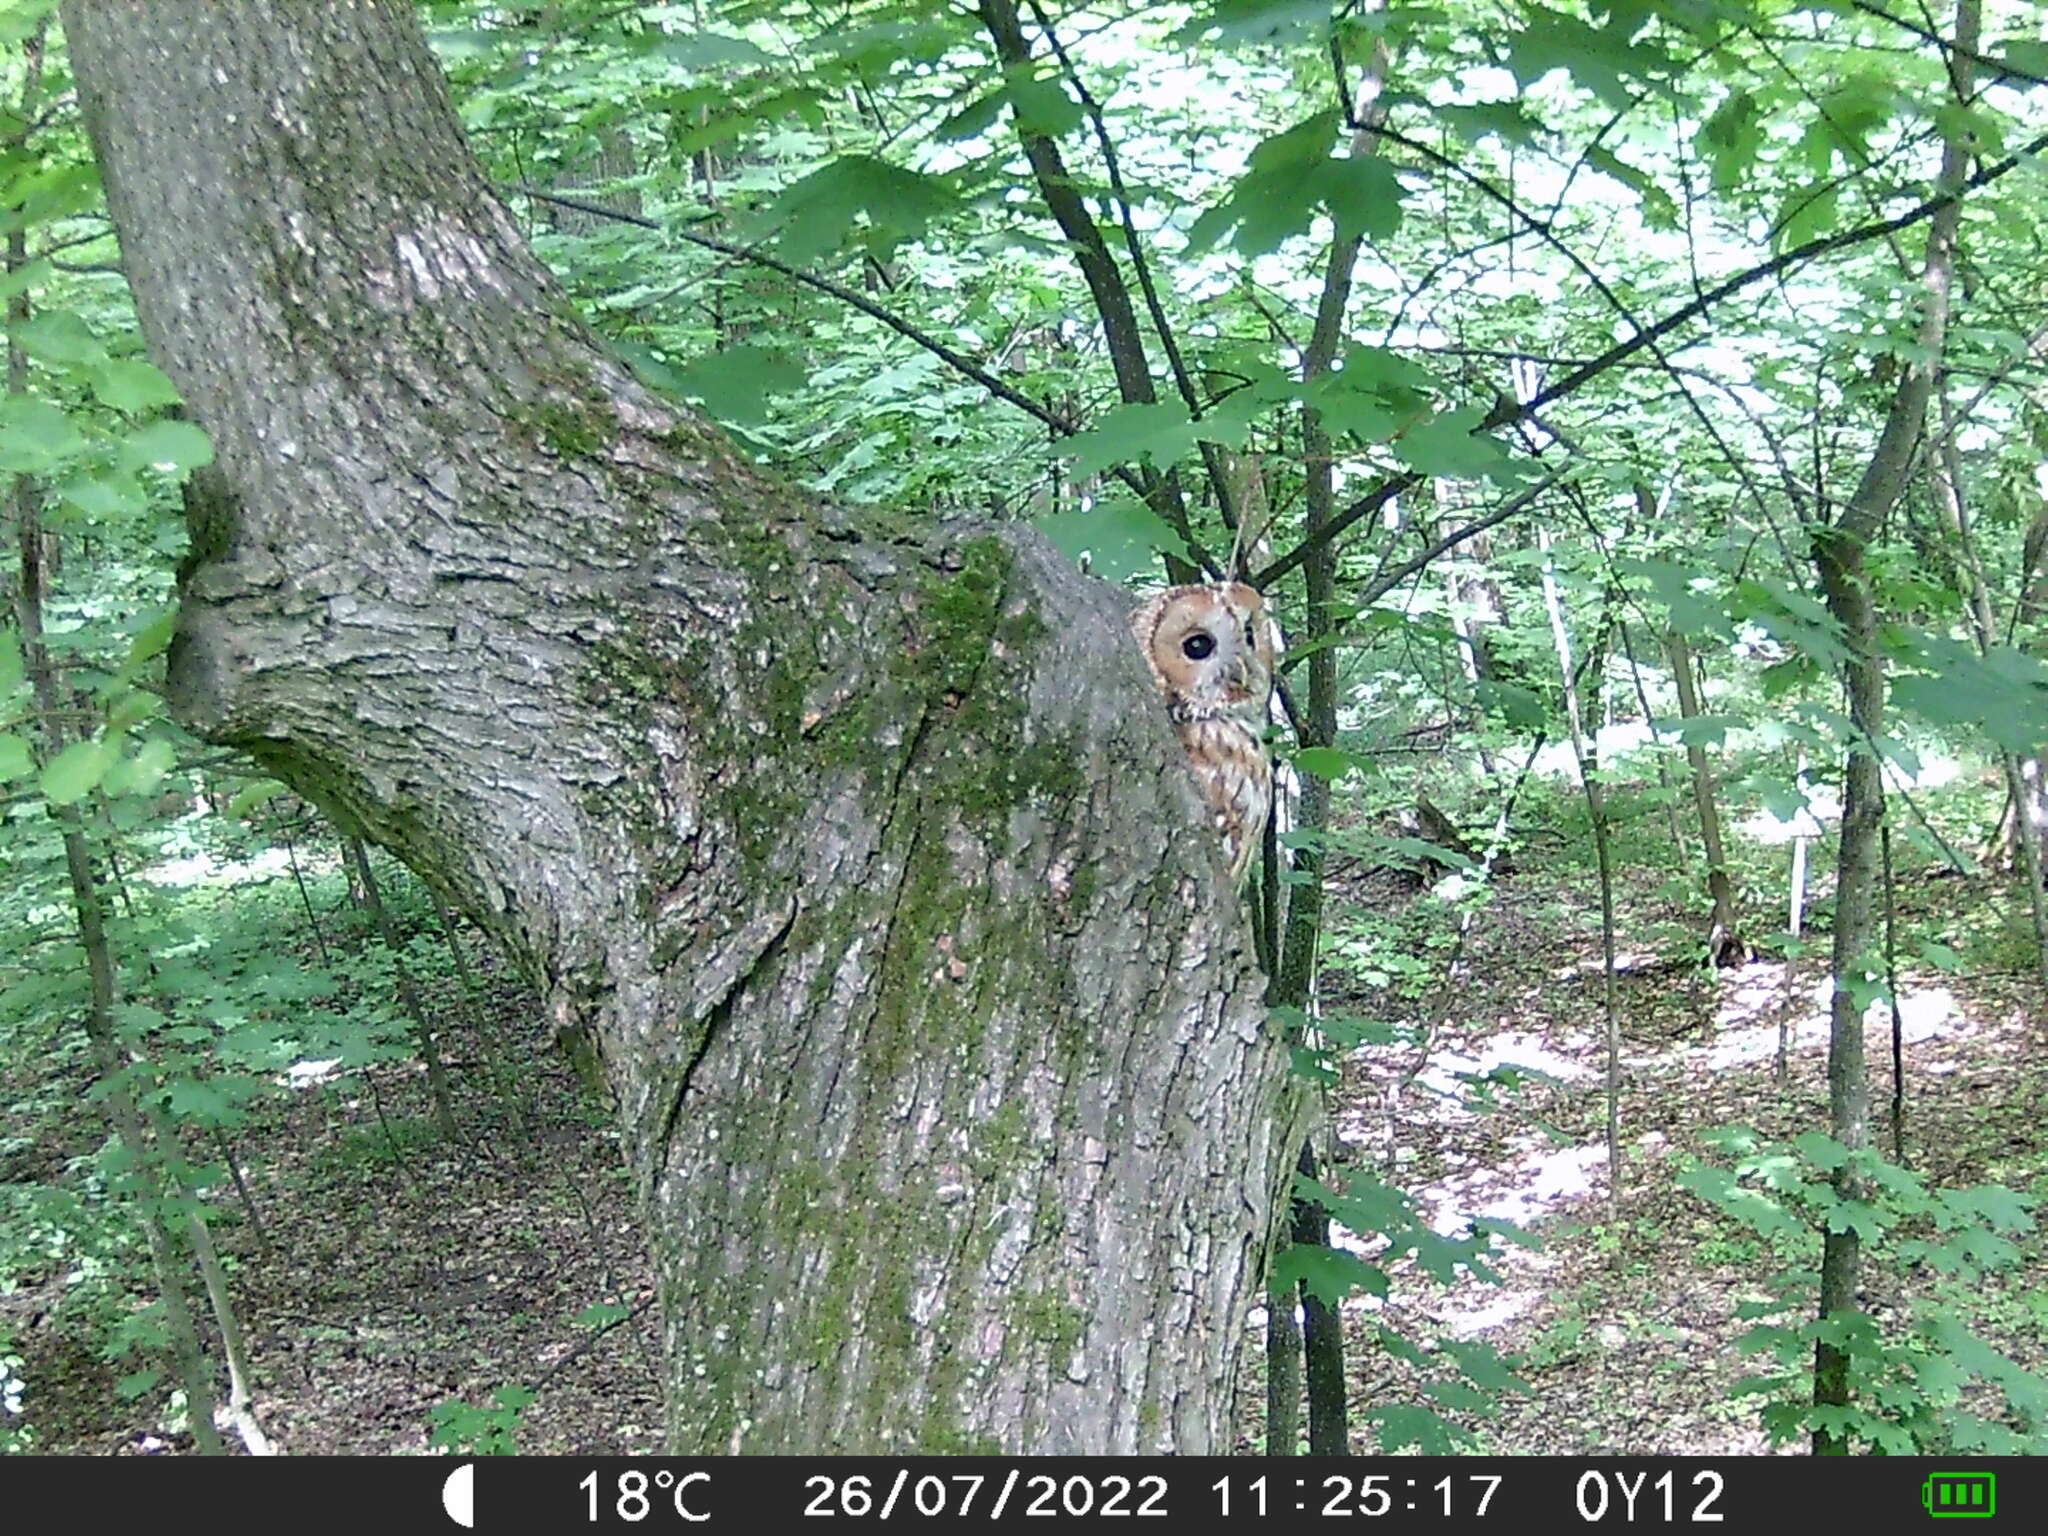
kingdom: Animalia
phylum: Chordata
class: Aves
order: Strigiformes
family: Strigidae
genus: Strix
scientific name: Strix aluco
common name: Tawny owl
